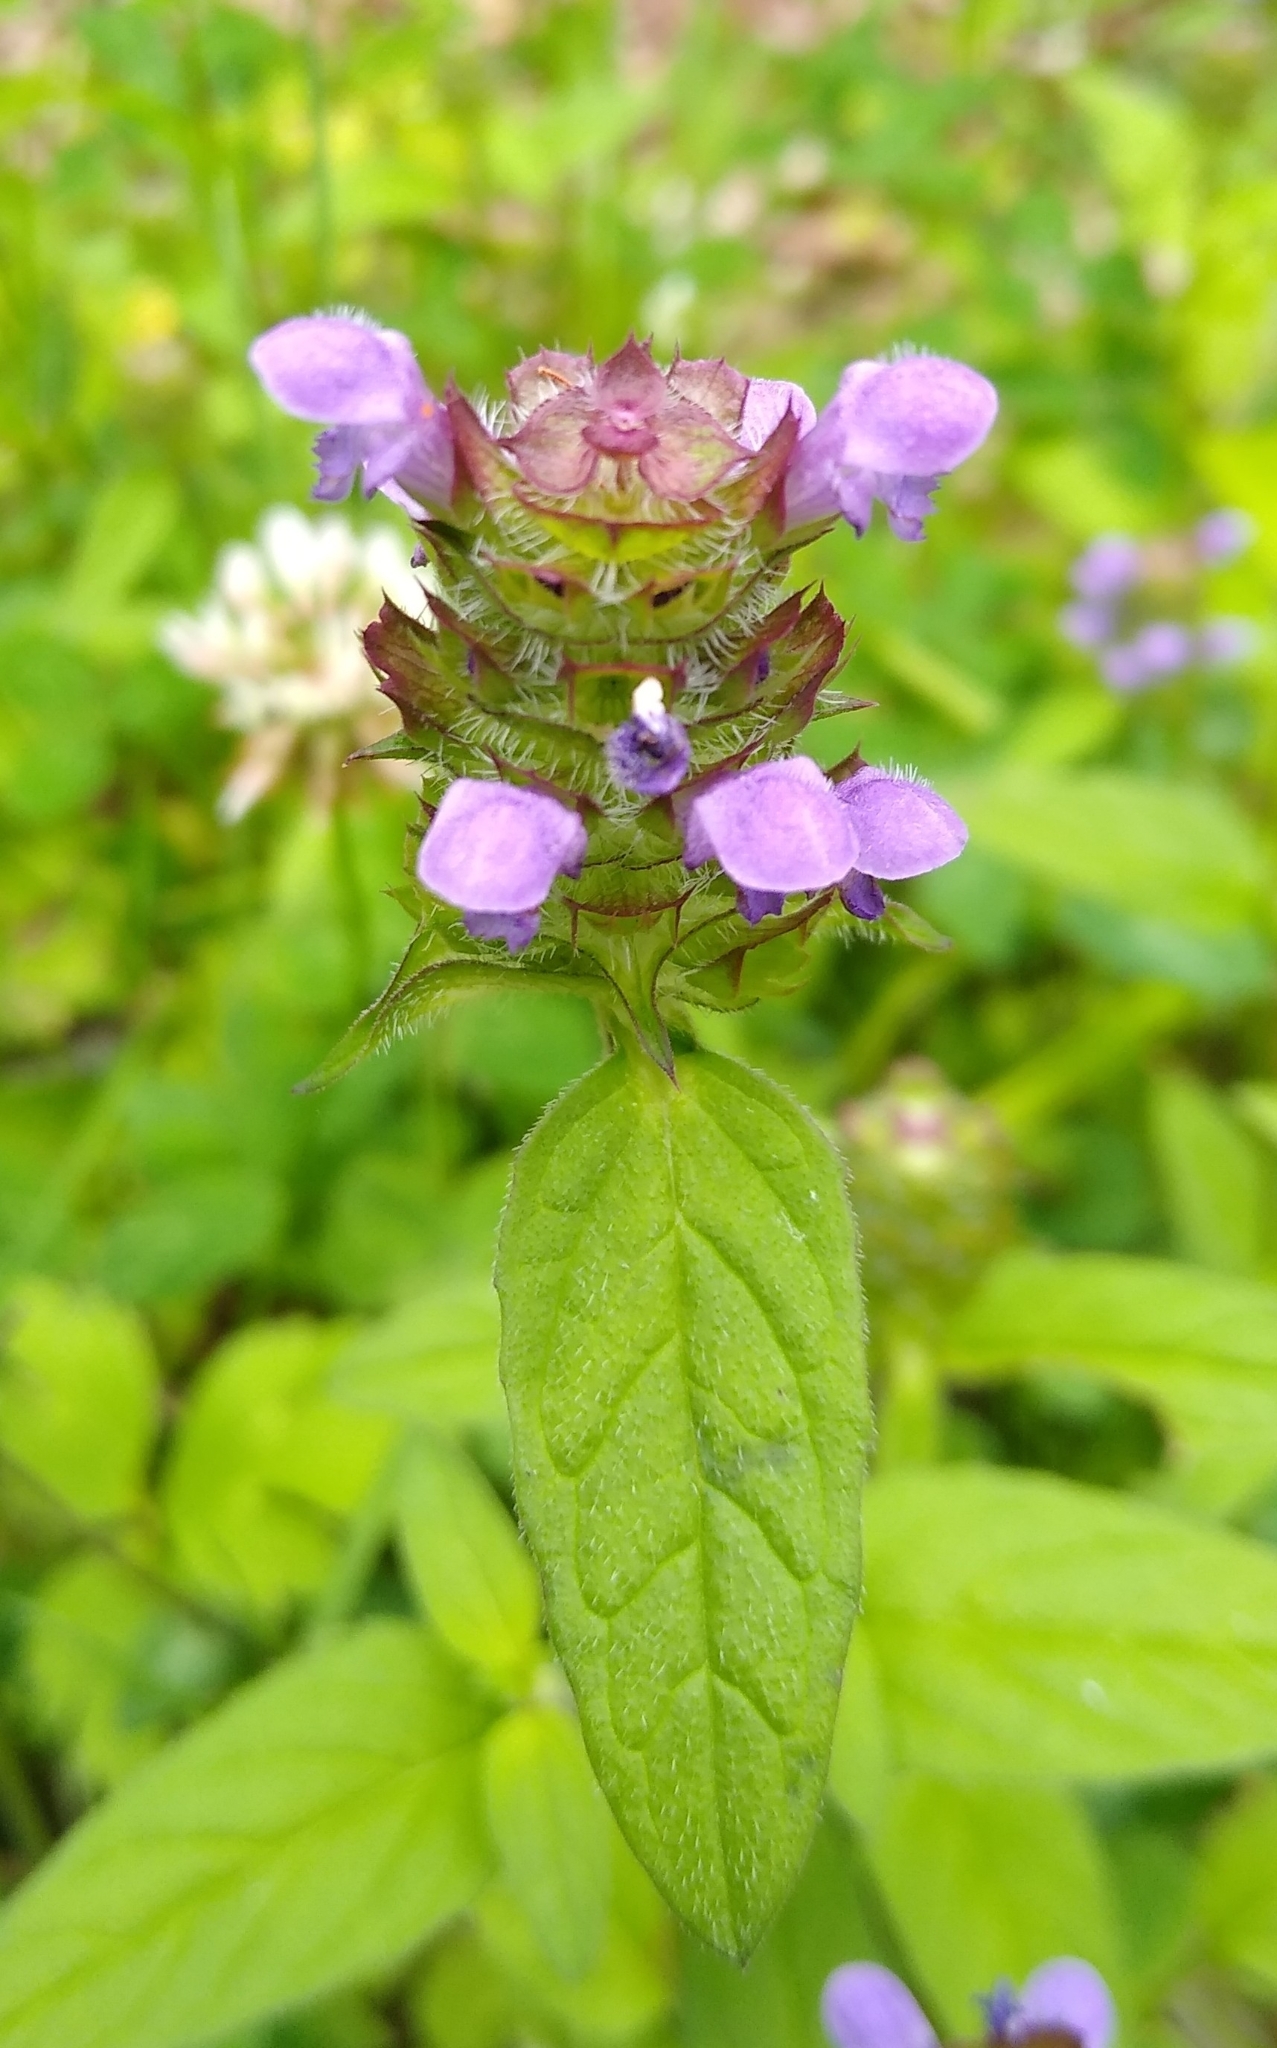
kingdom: Plantae
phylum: Tracheophyta
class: Magnoliopsida
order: Lamiales
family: Lamiaceae
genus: Prunella
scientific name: Prunella vulgaris
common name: Heal-all
